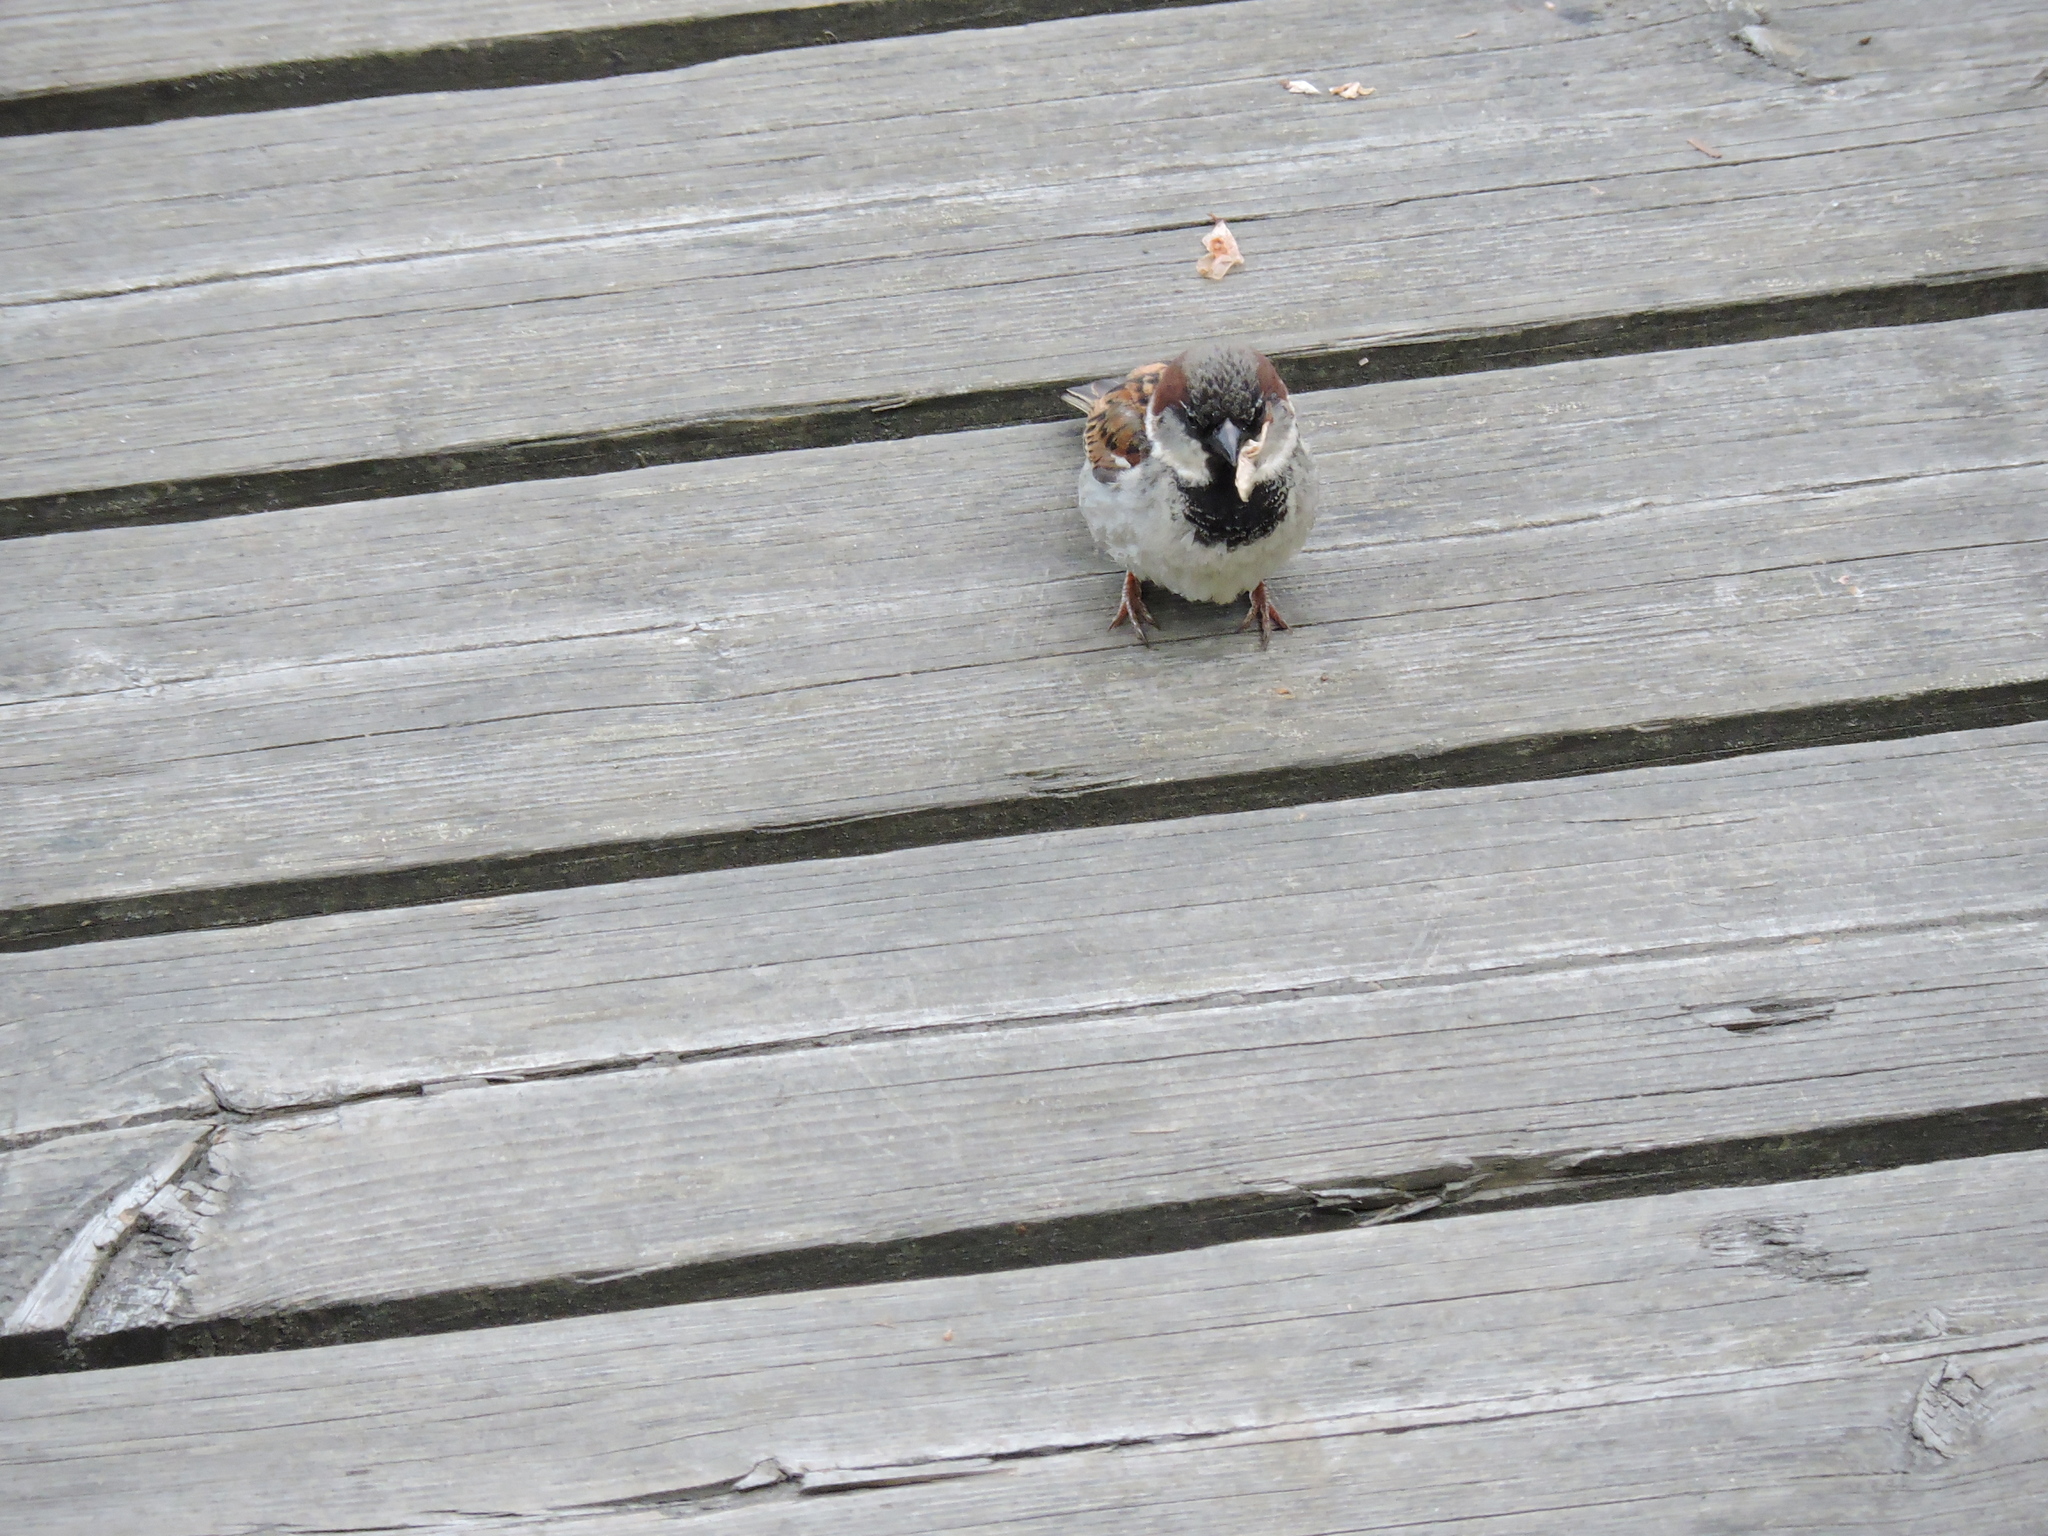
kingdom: Animalia
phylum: Chordata
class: Aves
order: Passeriformes
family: Passeridae
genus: Passer
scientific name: Passer domesticus
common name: House sparrow
